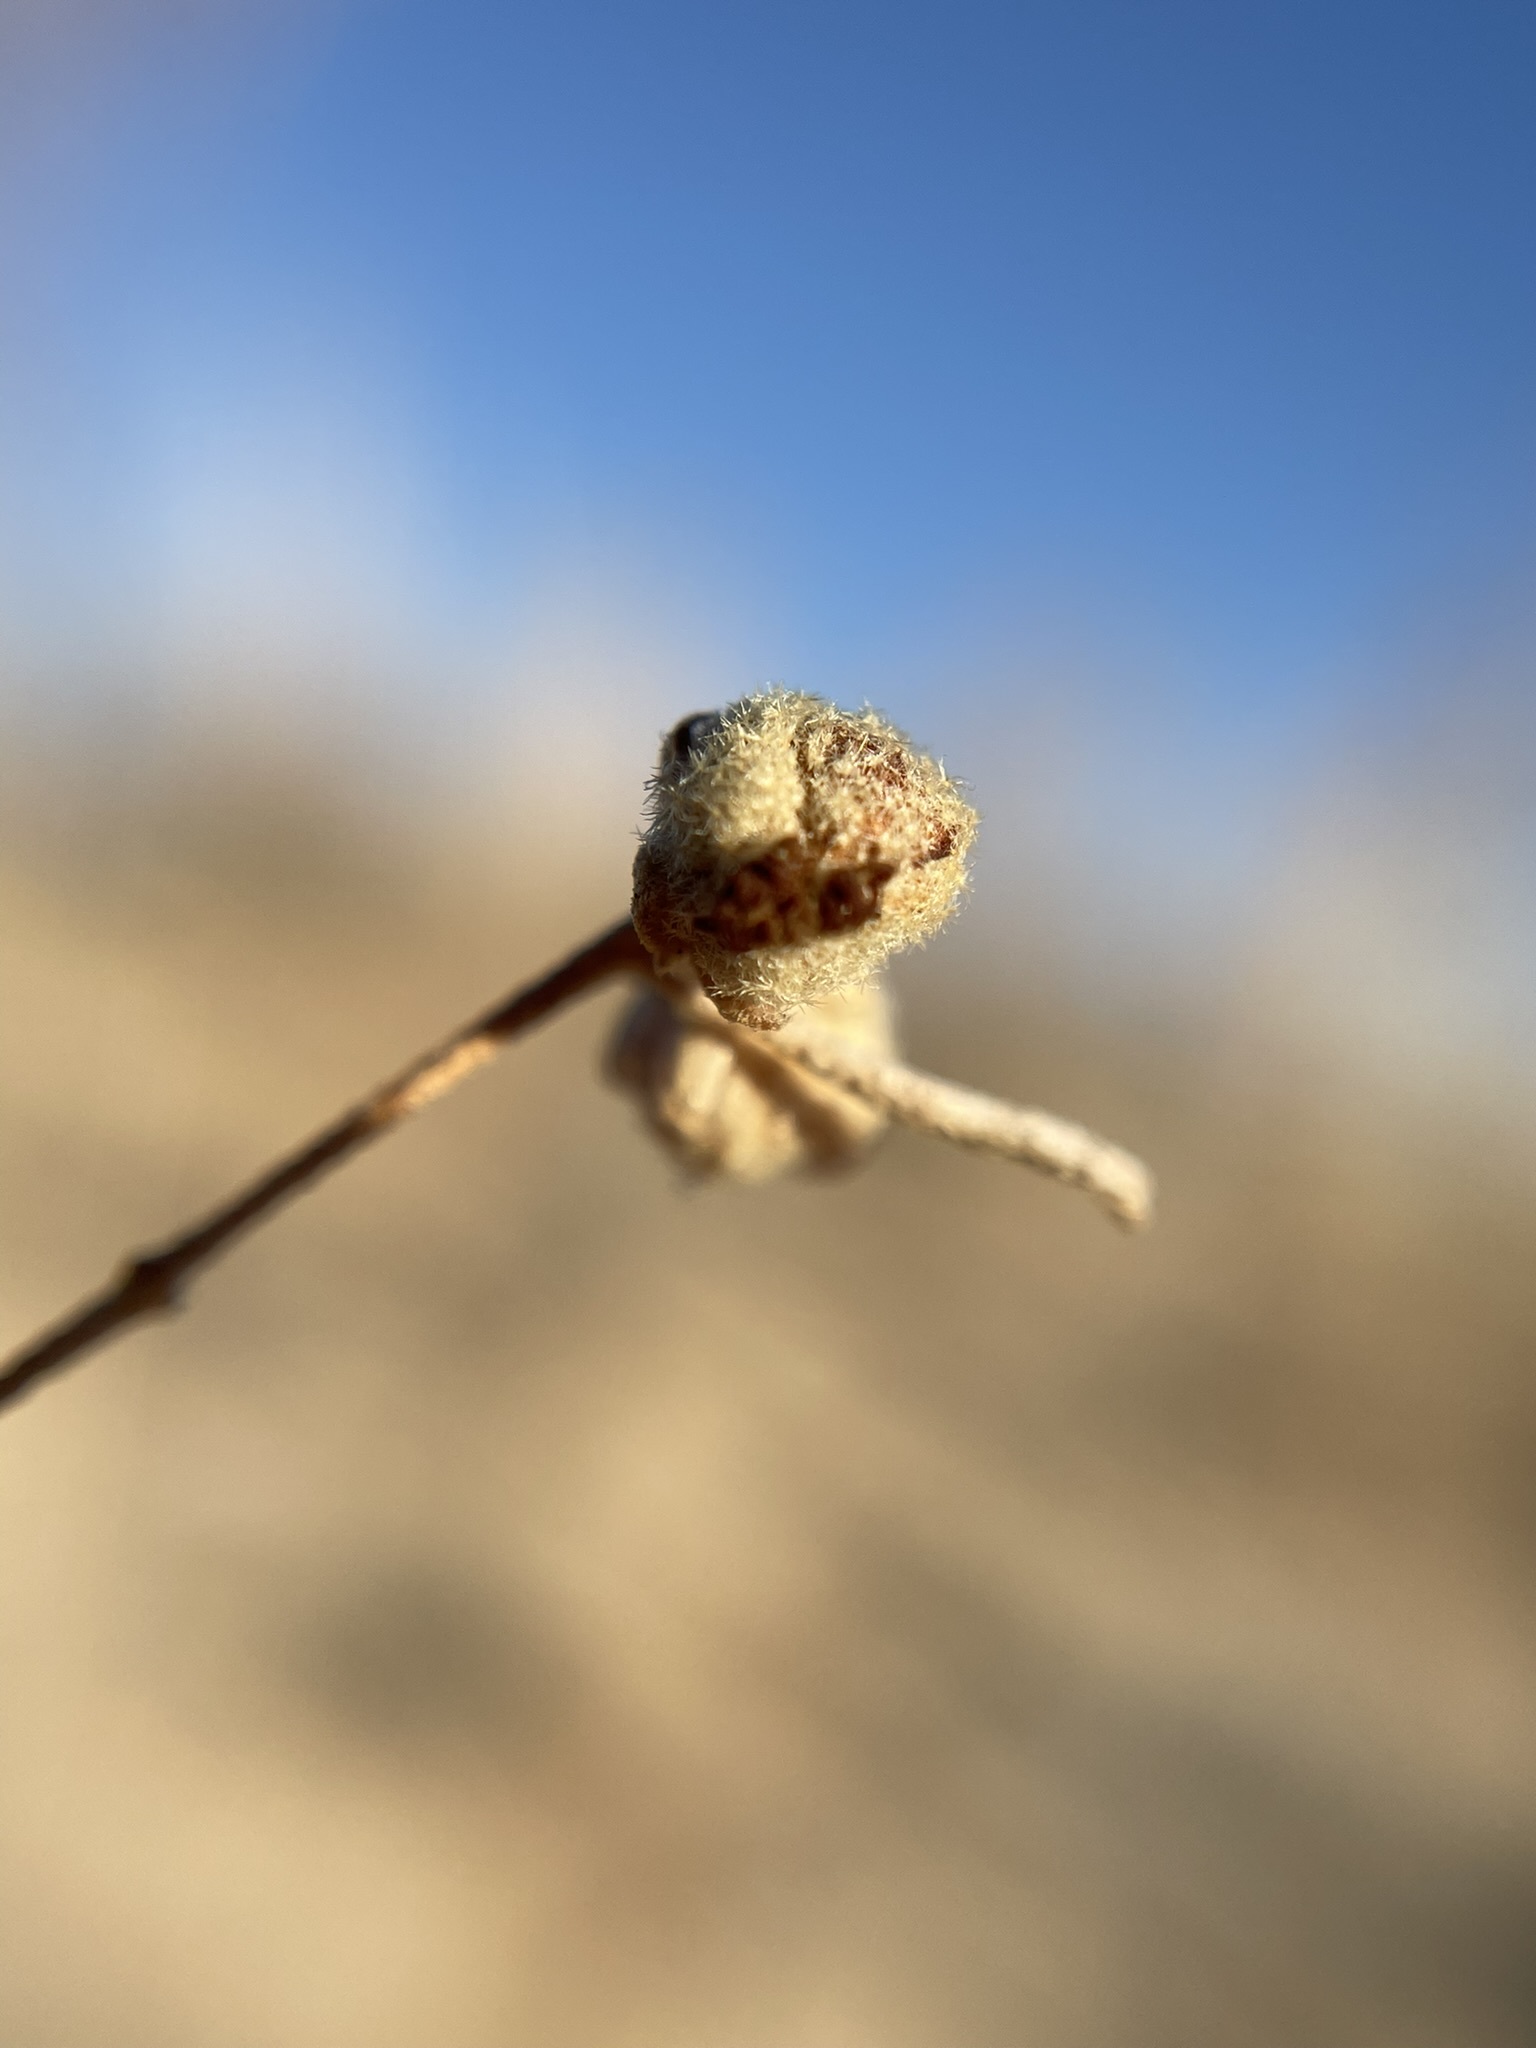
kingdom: Plantae
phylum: Tracheophyta
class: Magnoliopsida
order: Malpighiales
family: Euphorbiaceae
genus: Croton
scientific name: Croton texensis
